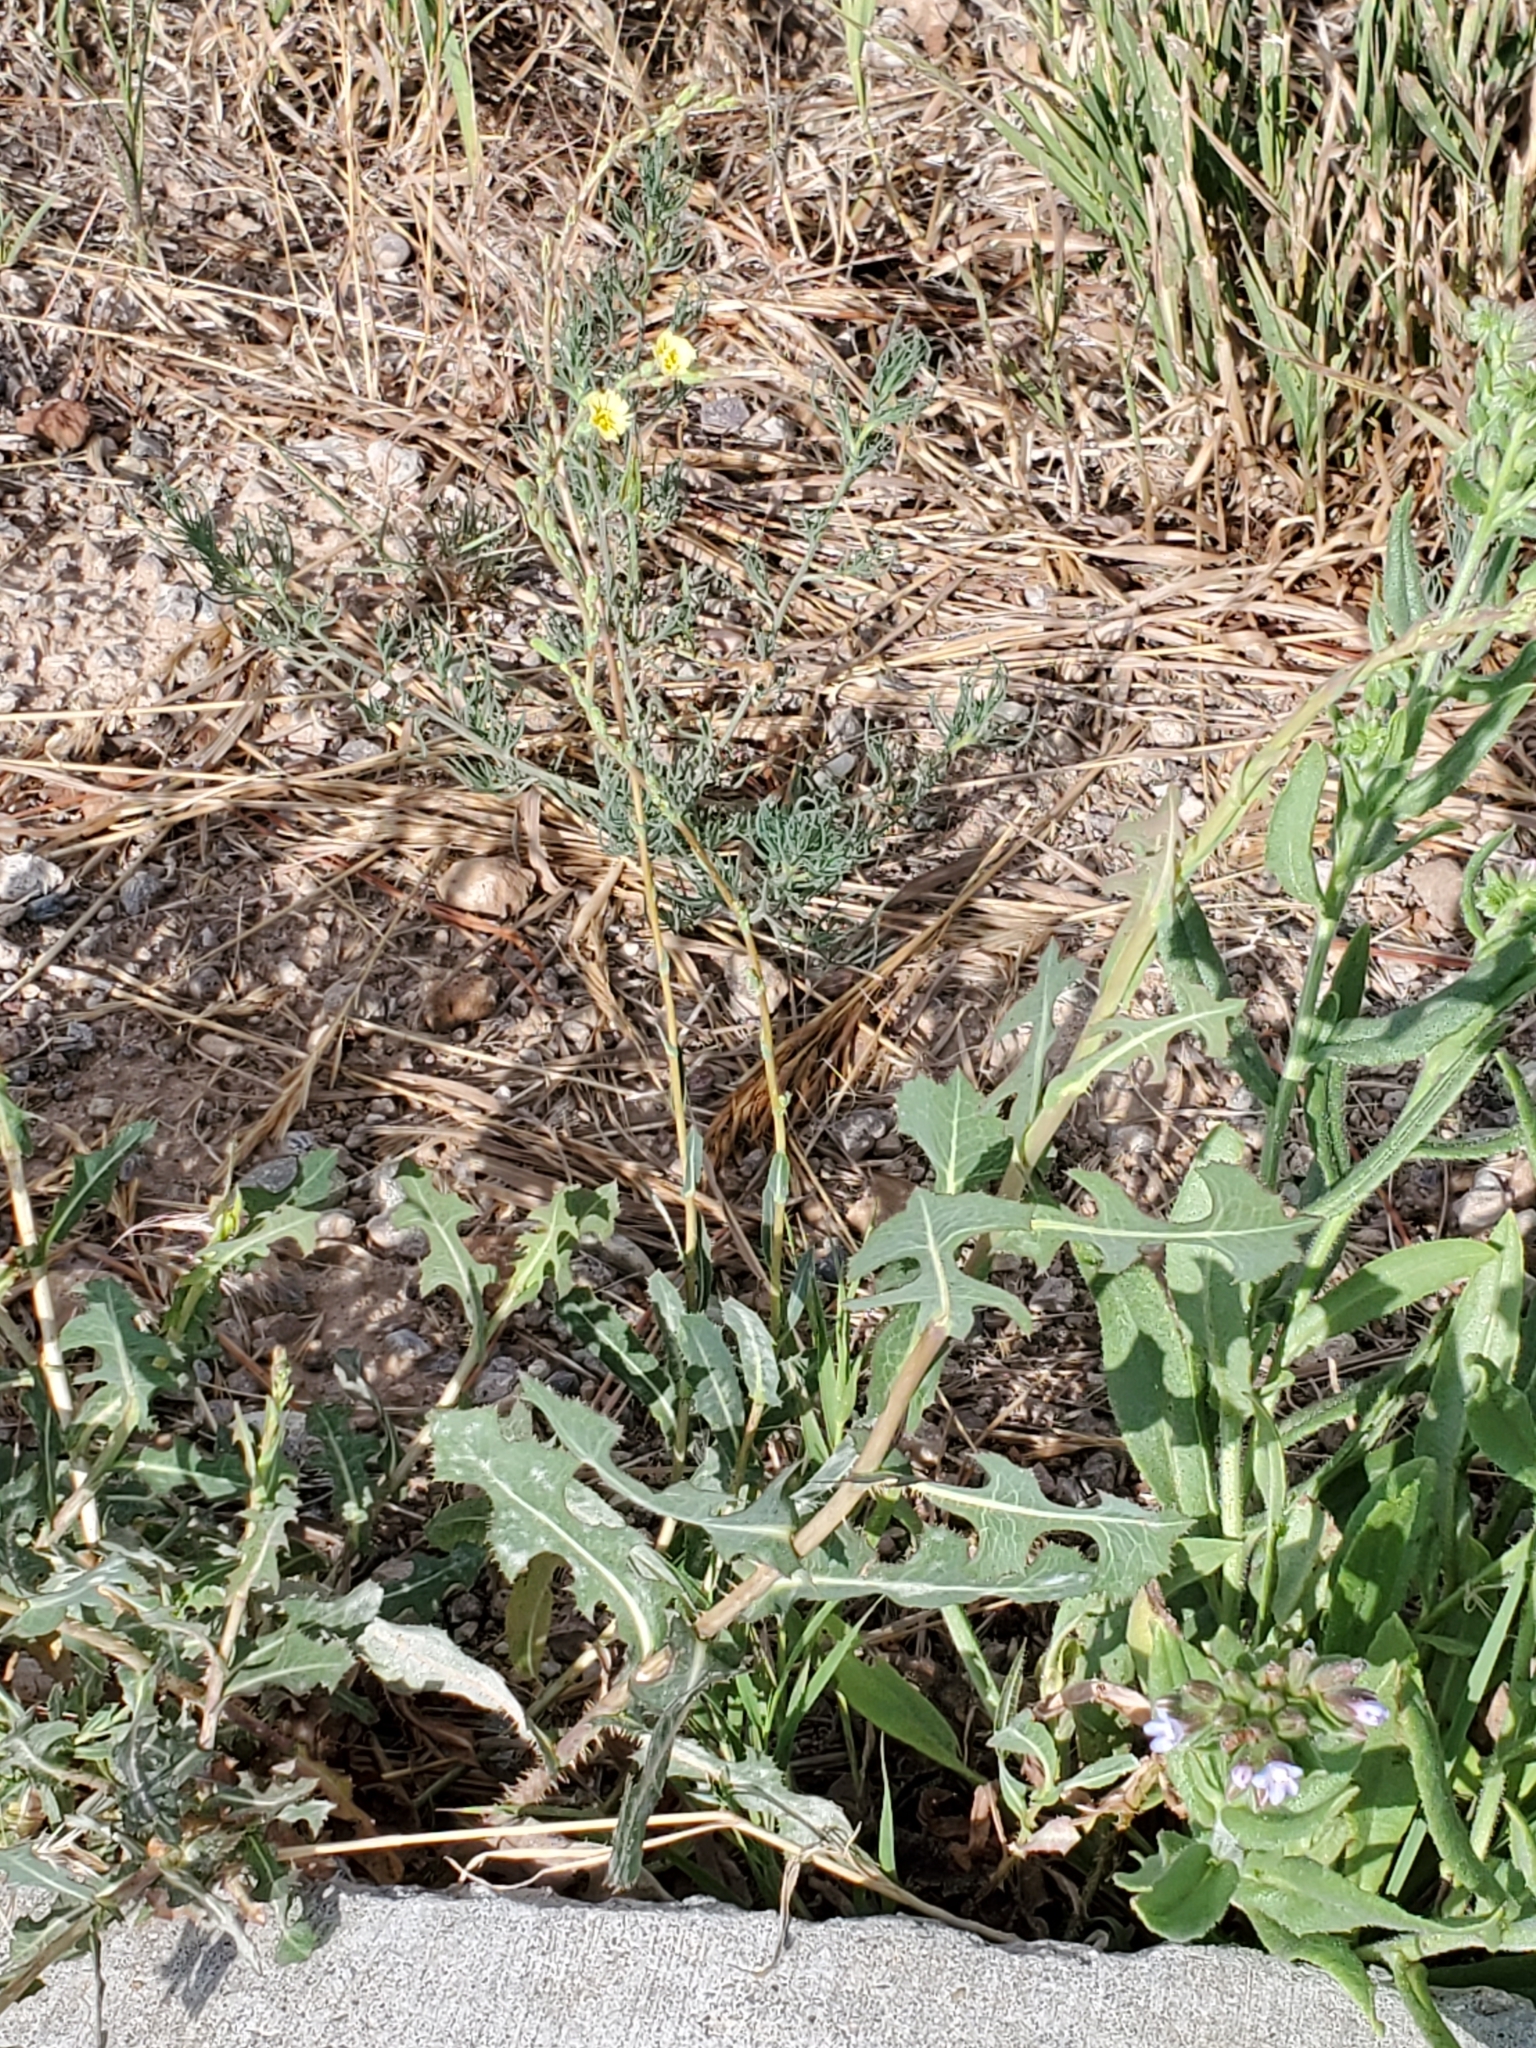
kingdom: Plantae
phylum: Tracheophyta
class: Magnoliopsida
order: Asterales
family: Asteraceae
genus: Lactuca
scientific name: Lactuca serriola
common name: Prickly lettuce
